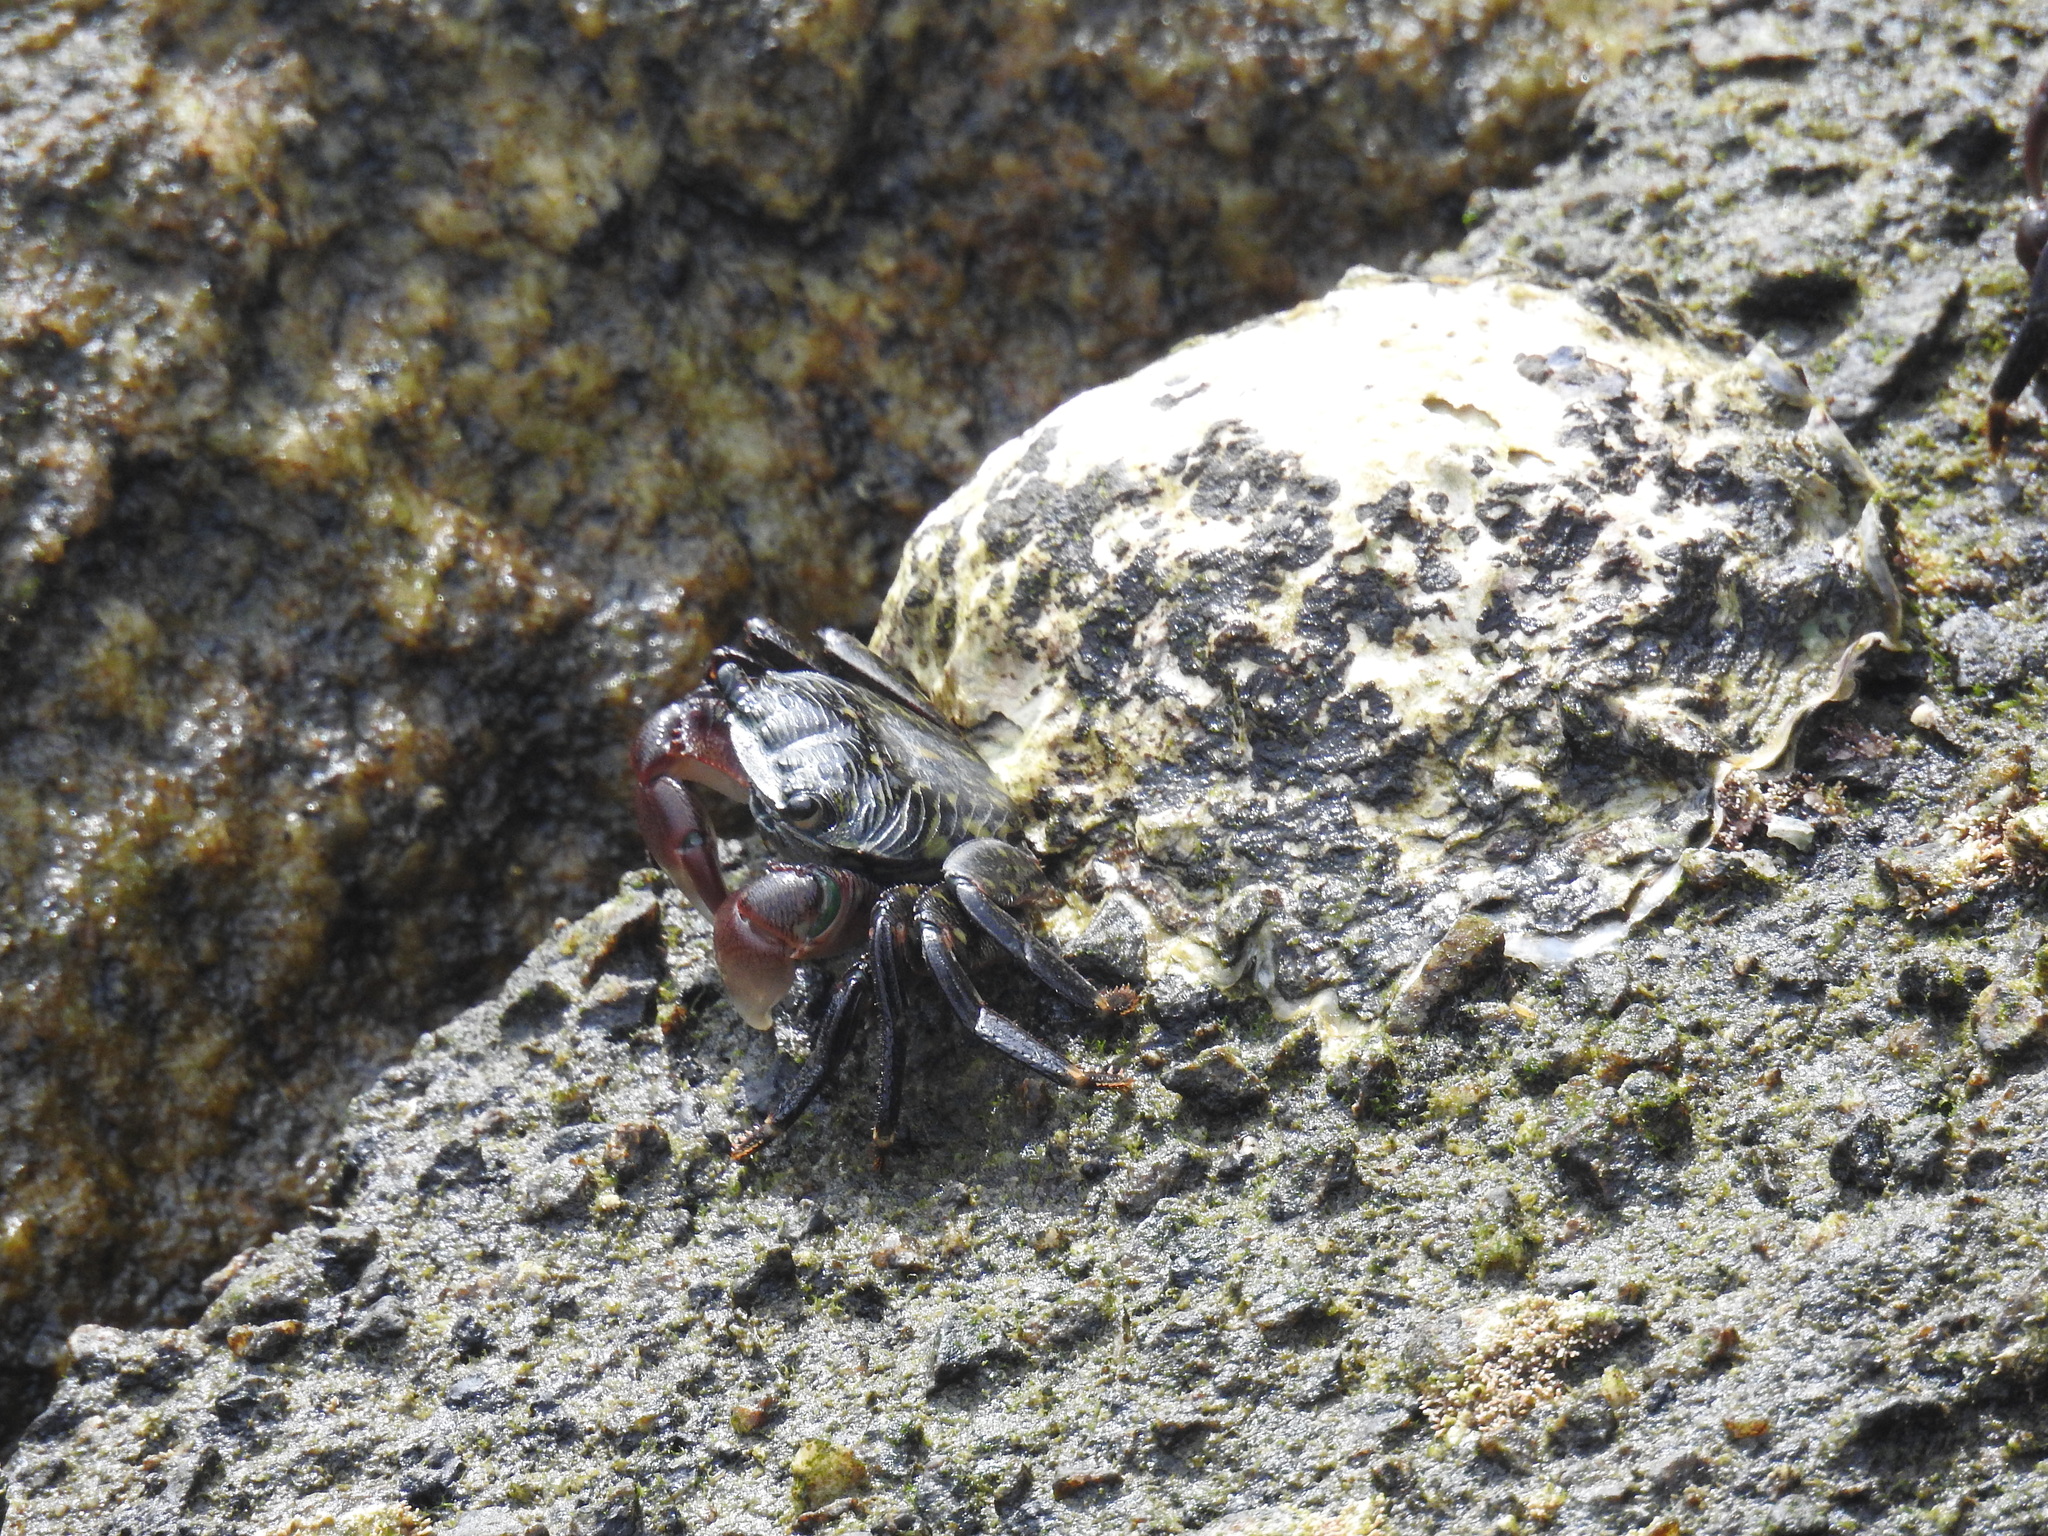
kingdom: Animalia
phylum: Arthropoda
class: Malacostraca
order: Decapoda
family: Grapsidae
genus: Pachygrapsus
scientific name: Pachygrapsus crassipes
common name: Striped shore crab
